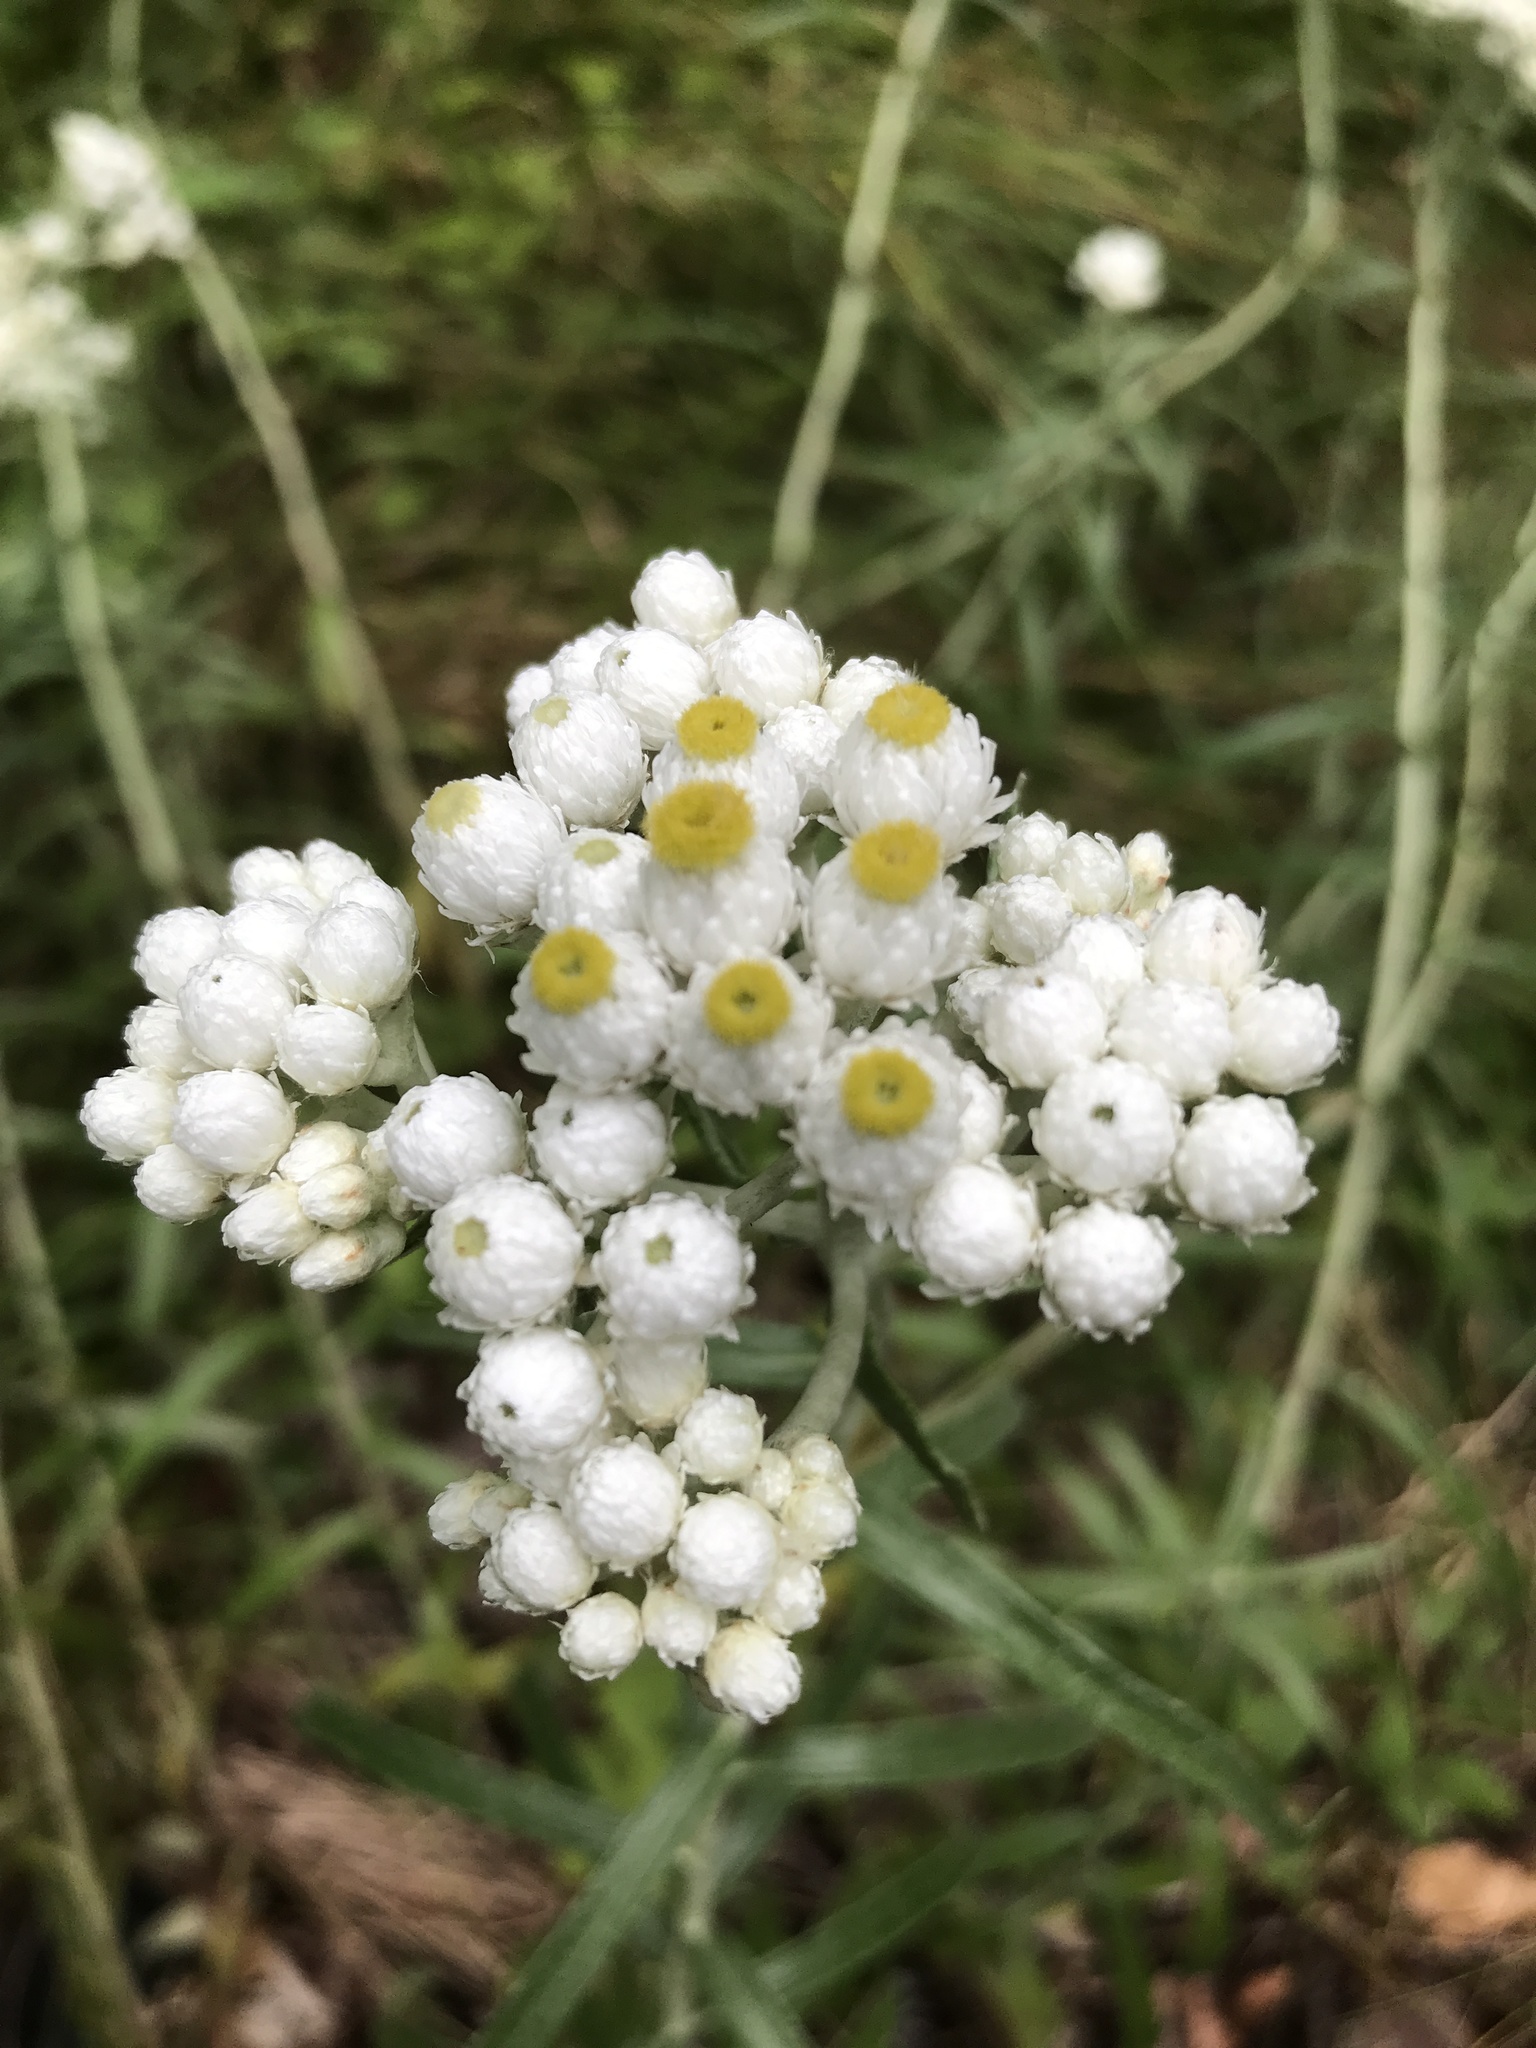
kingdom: Plantae
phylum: Tracheophyta
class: Magnoliopsida
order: Asterales
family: Asteraceae
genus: Anaphalis
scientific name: Anaphalis margaritacea
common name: Pearly everlasting
